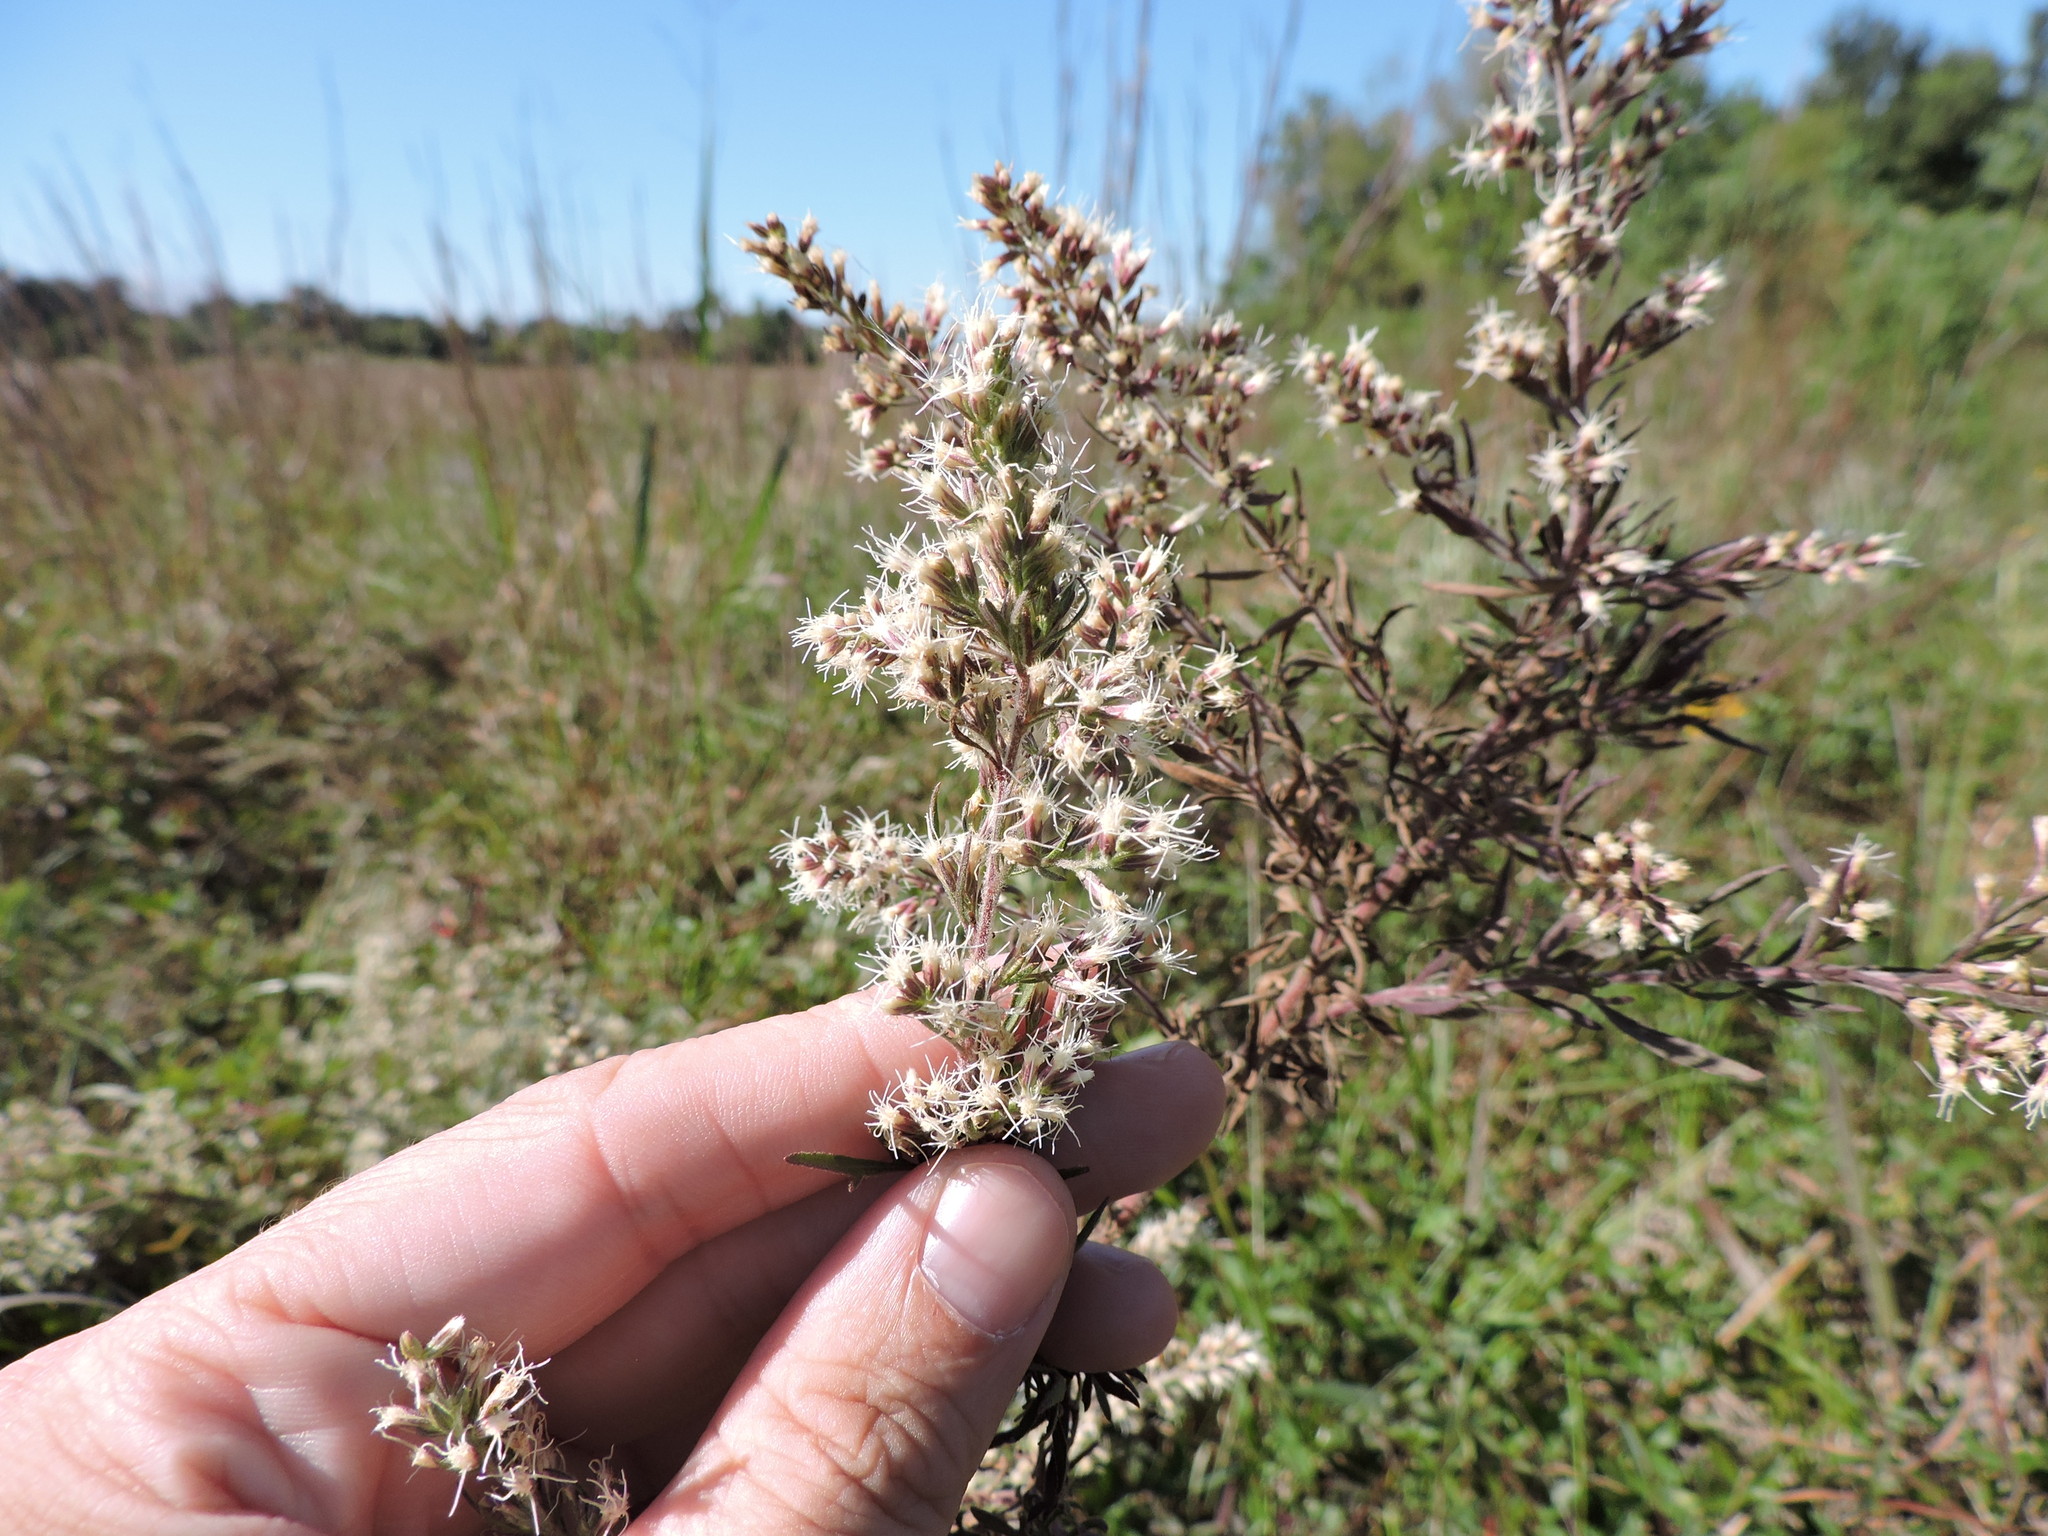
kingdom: Plantae
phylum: Tracheophyta
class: Magnoliopsida
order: Asterales
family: Asteraceae
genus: Eupatorium
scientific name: Eupatorium compositifolium
